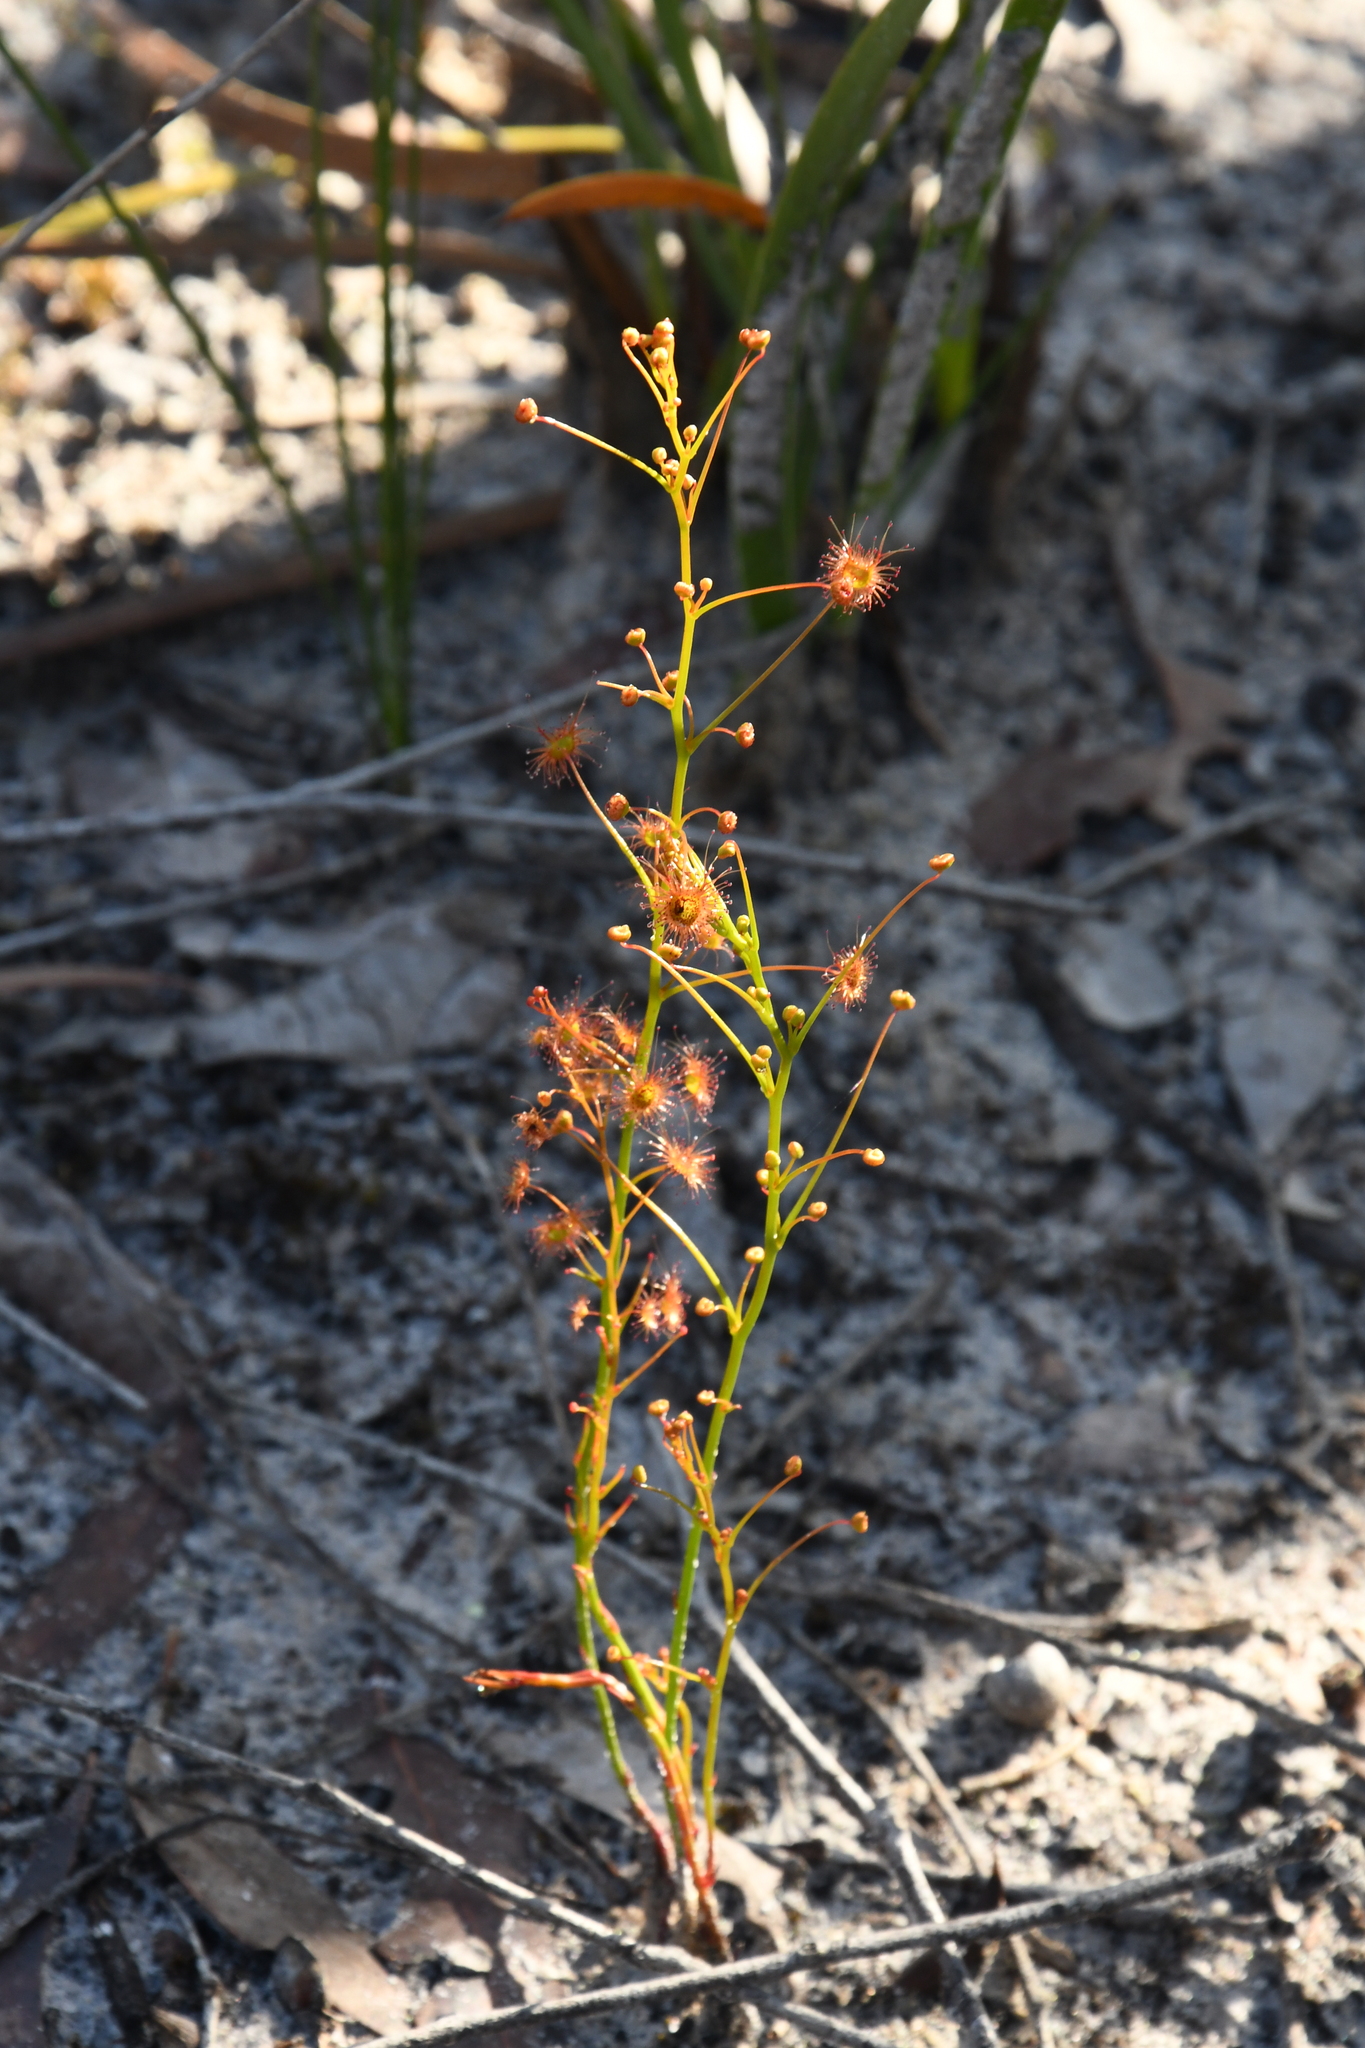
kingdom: Plantae
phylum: Tracheophyta
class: Magnoliopsida
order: Caryophyllales
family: Droseraceae
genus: Drosera
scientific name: Drosera sulphurea
